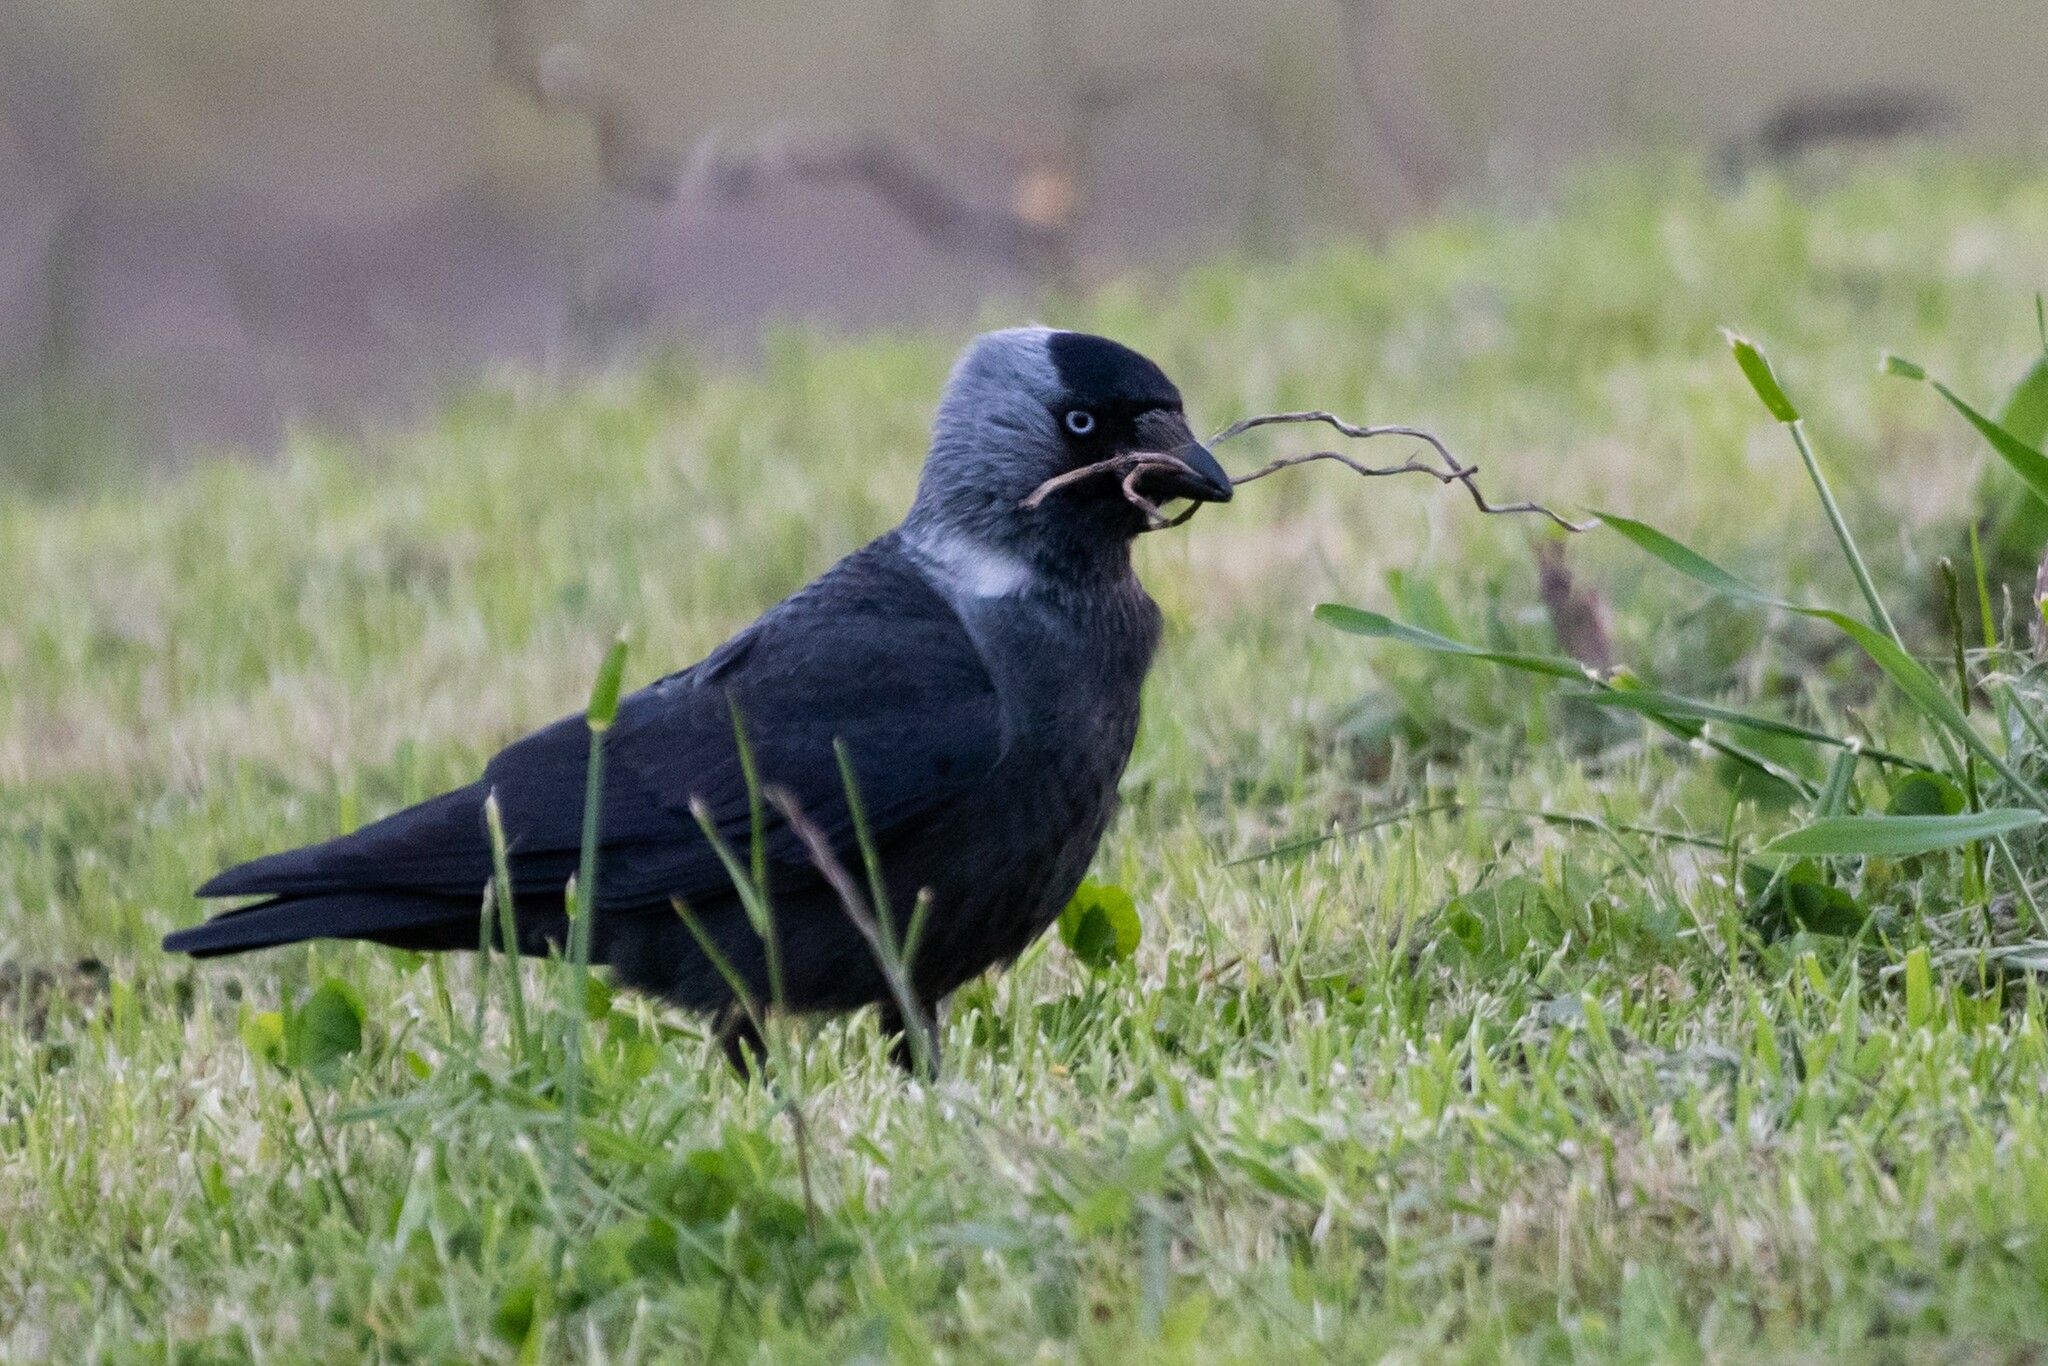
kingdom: Animalia
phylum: Chordata
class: Aves
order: Passeriformes
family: Corvidae
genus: Coloeus
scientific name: Coloeus monedula
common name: Western jackdaw
